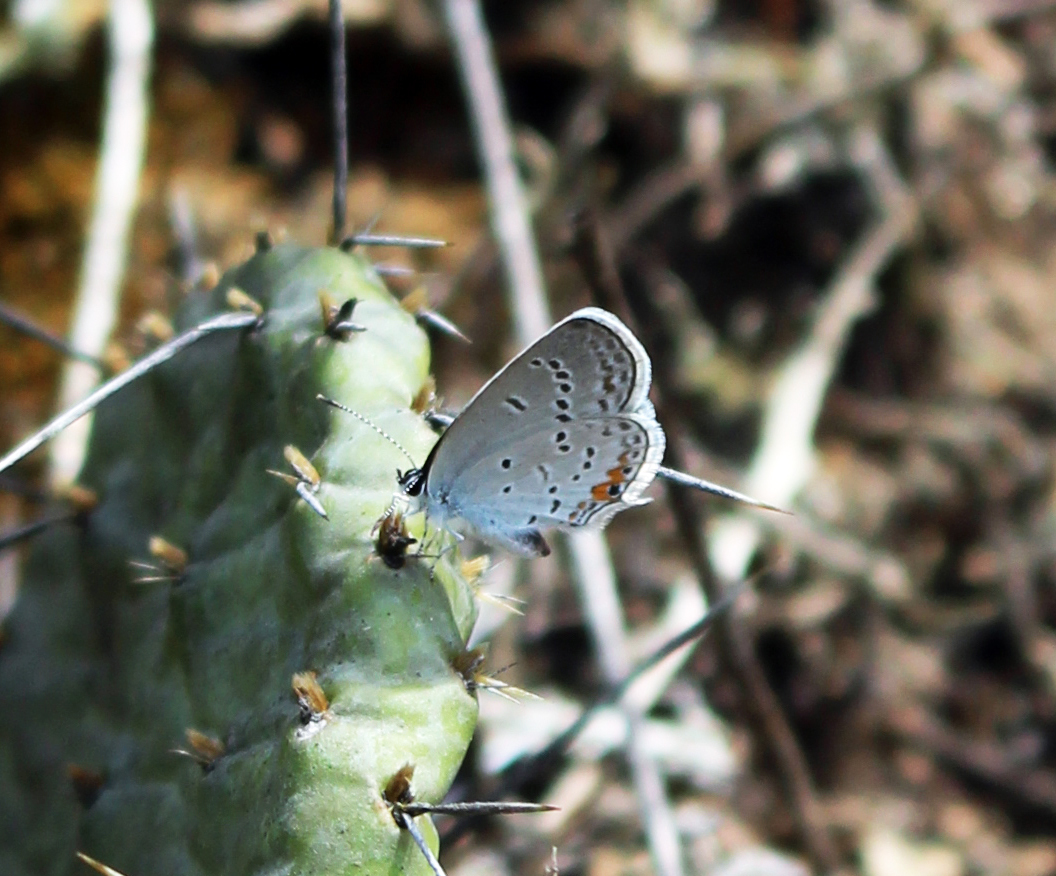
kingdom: Animalia
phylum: Arthropoda
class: Insecta
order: Lepidoptera
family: Lycaenidae
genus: Elkalyce
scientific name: Elkalyce comyntas
